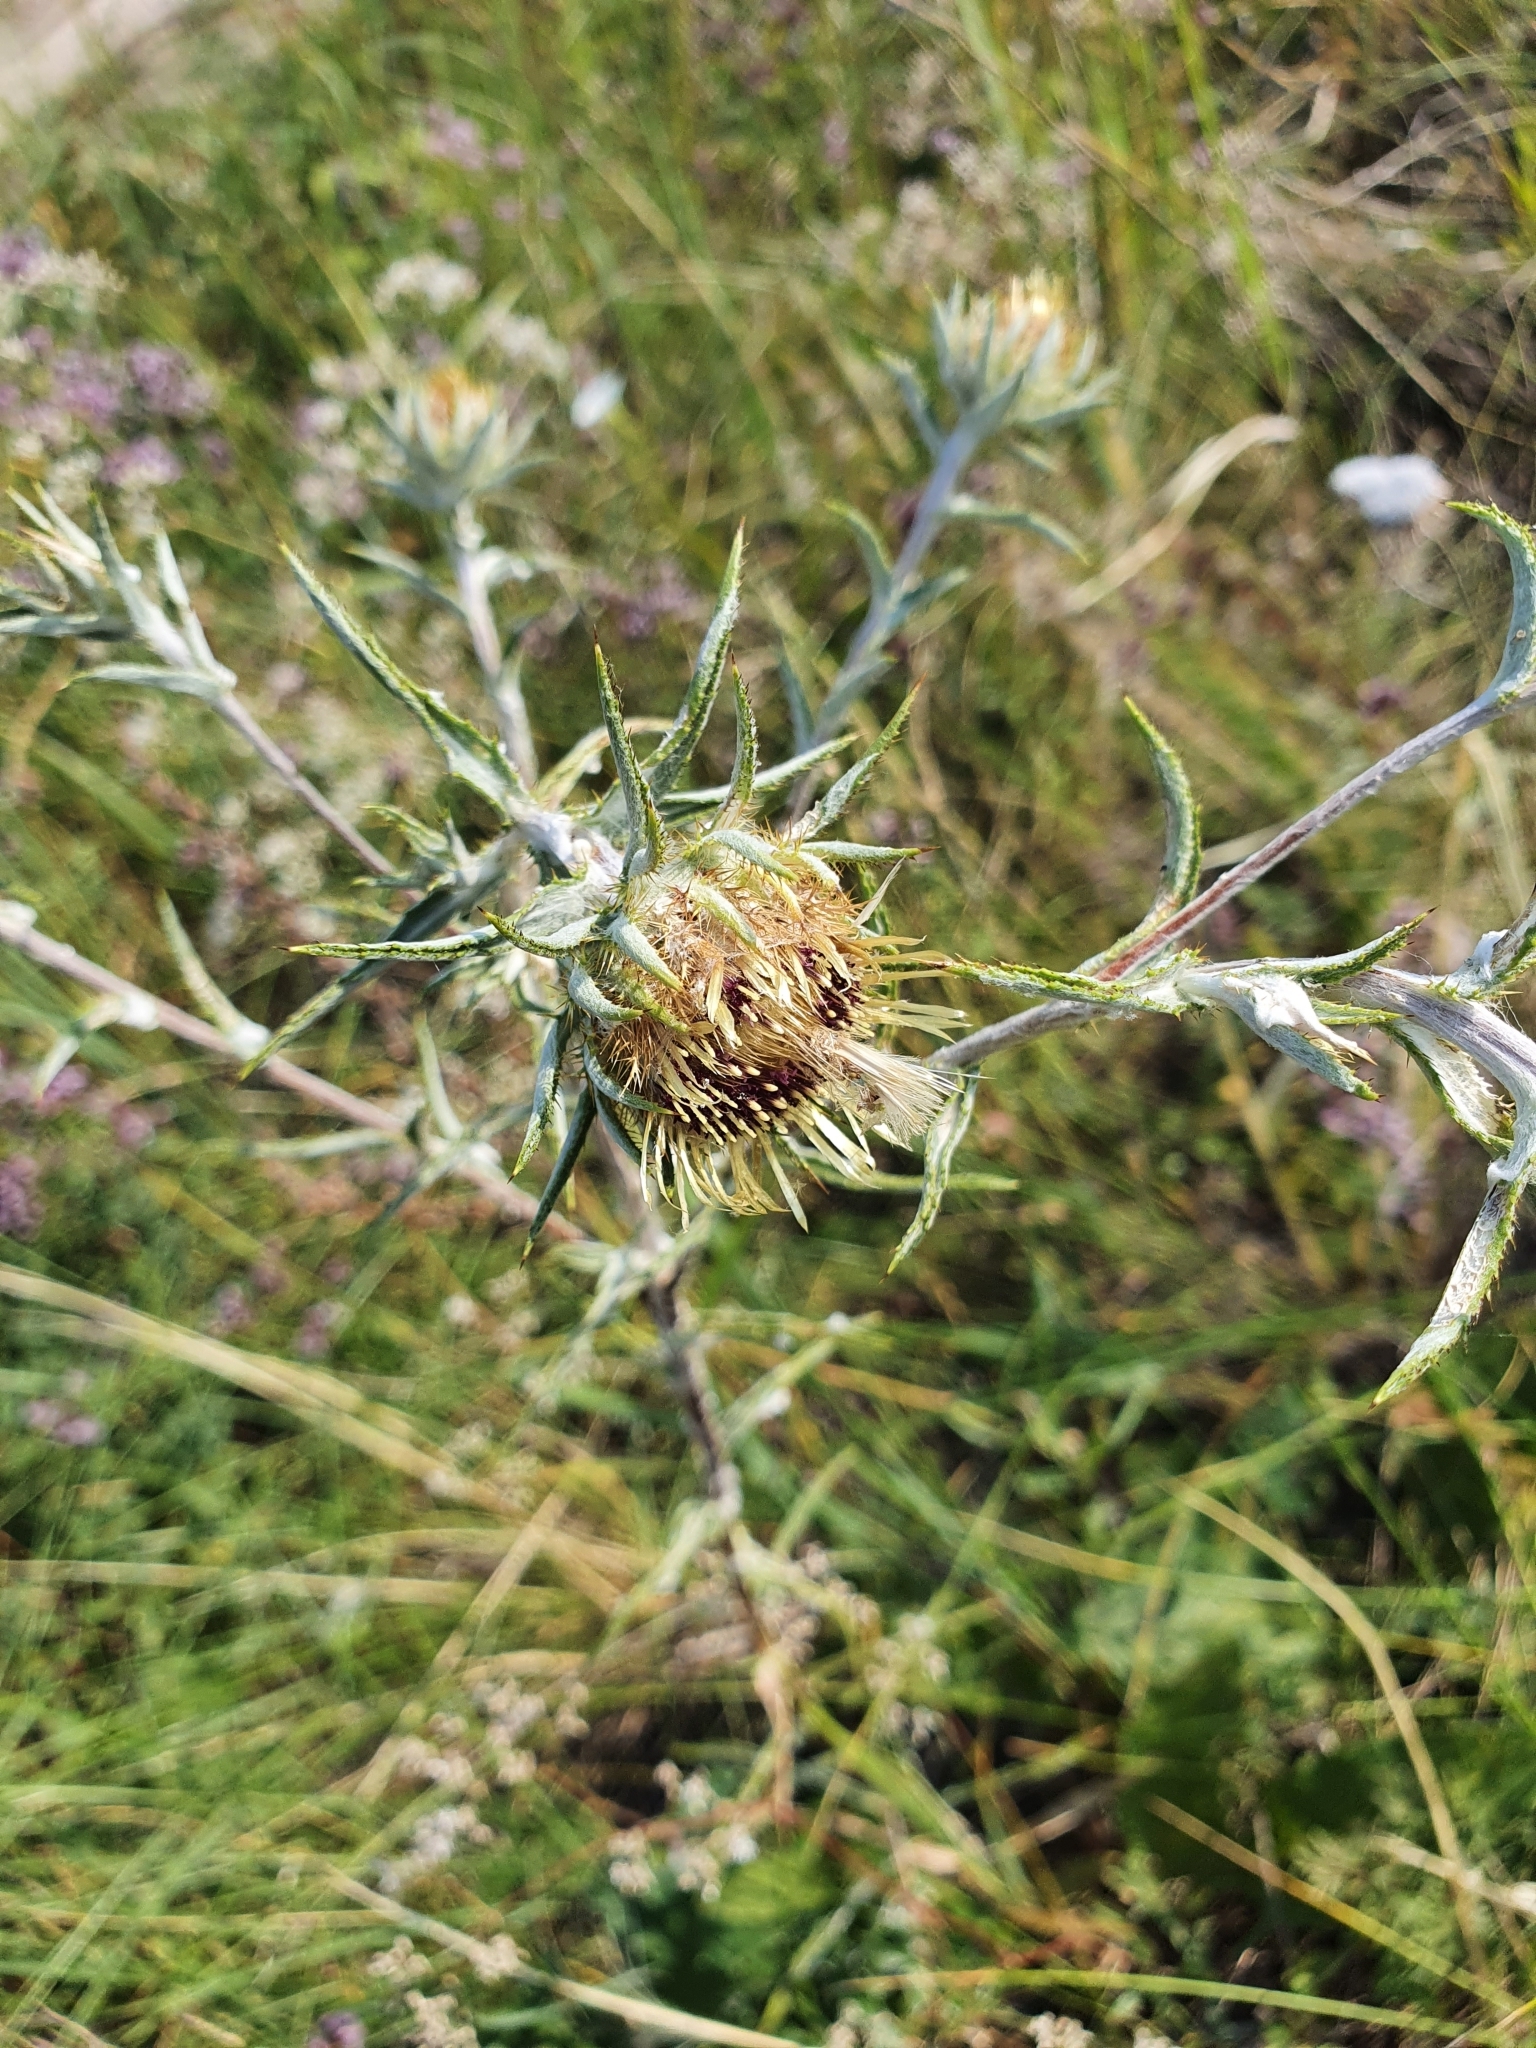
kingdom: Plantae
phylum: Tracheophyta
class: Magnoliopsida
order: Asterales
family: Asteraceae
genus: Carlina
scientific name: Carlina biebersteinii
